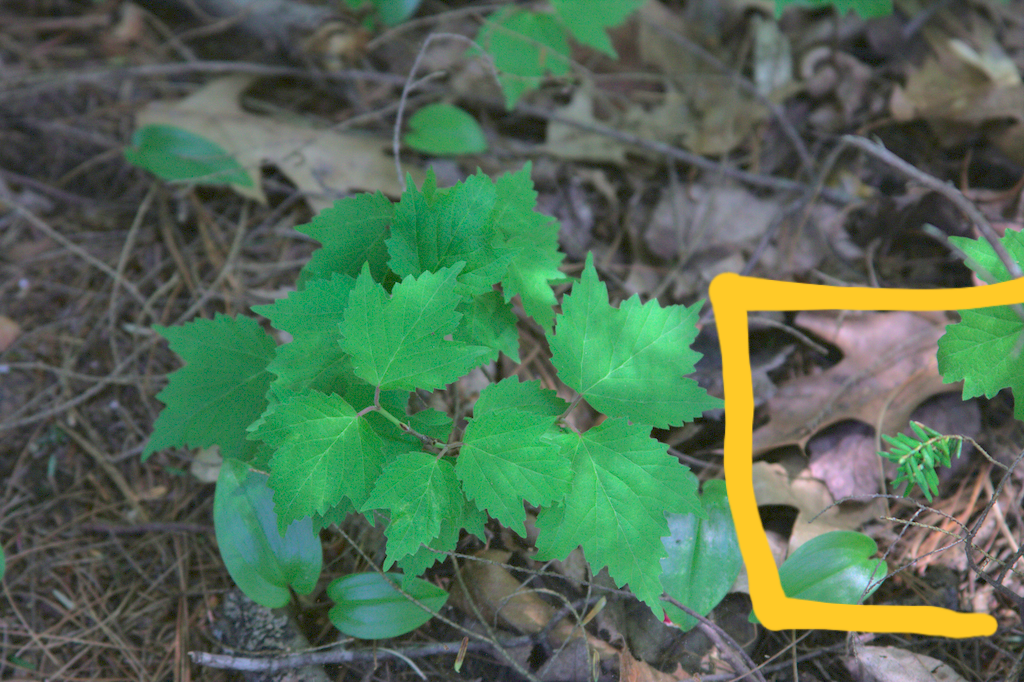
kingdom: Plantae
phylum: Tracheophyta
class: Pinopsida
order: Pinales
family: Pinaceae
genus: Tsuga
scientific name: Tsuga canadensis
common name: Eastern hemlock
